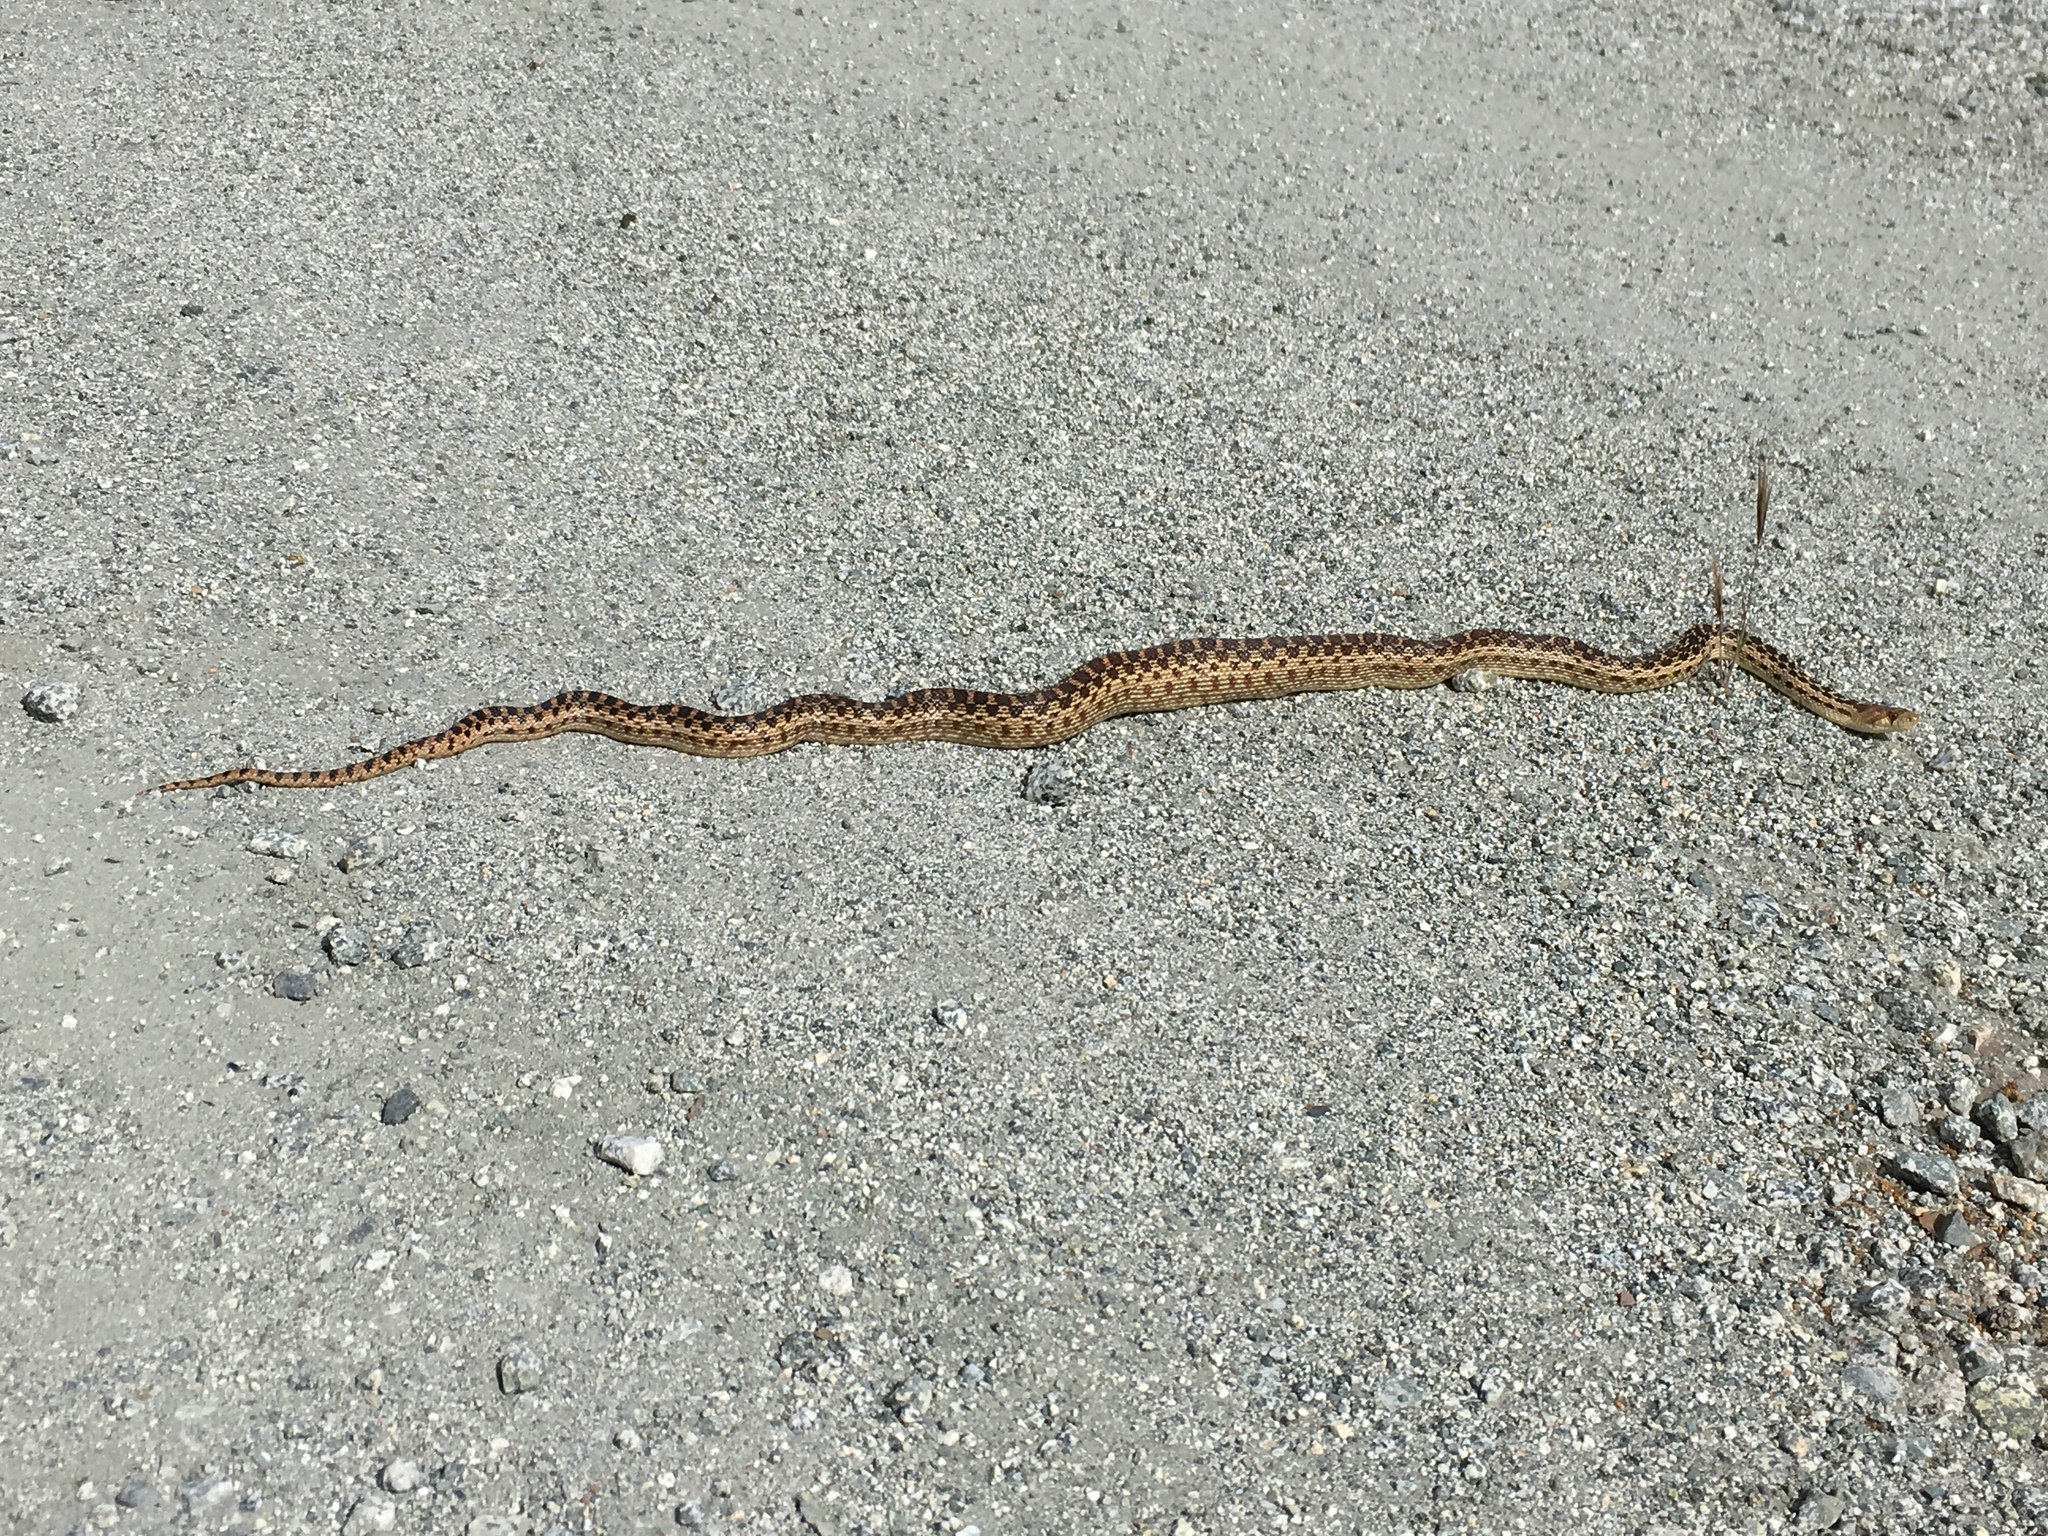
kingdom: Animalia
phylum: Chordata
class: Squamata
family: Colubridae
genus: Pituophis
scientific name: Pituophis catenifer
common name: Gopher snake
